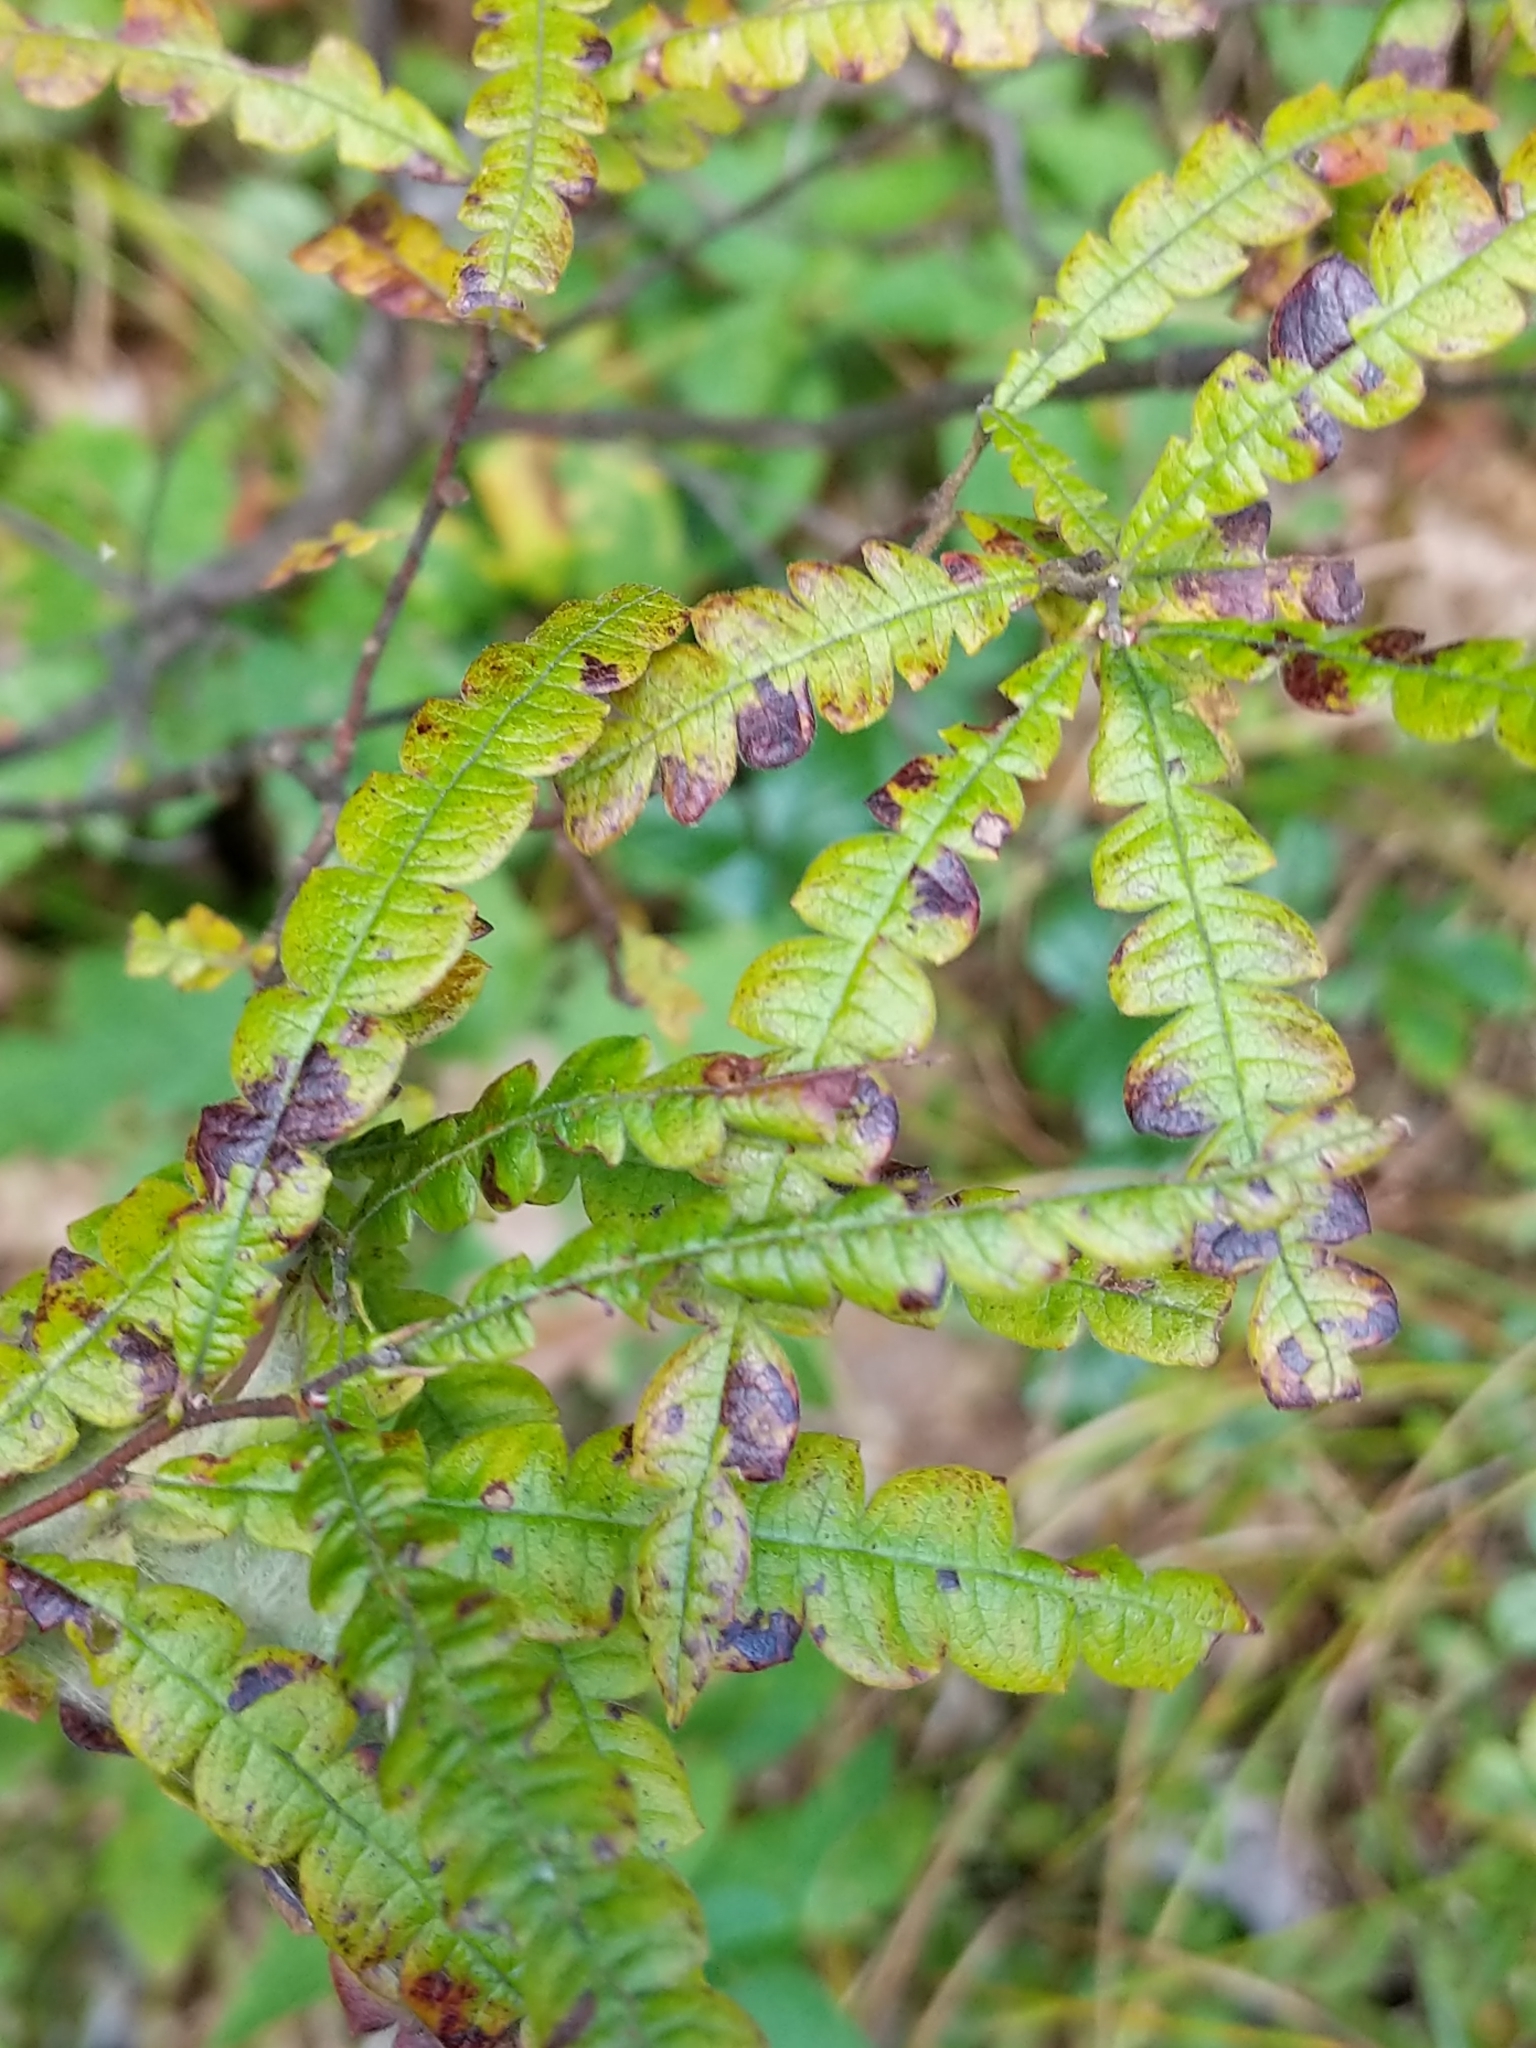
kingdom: Plantae
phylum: Tracheophyta
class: Magnoliopsida
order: Fagales
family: Myricaceae
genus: Comptonia
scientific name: Comptonia peregrina
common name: Sweet-fern
